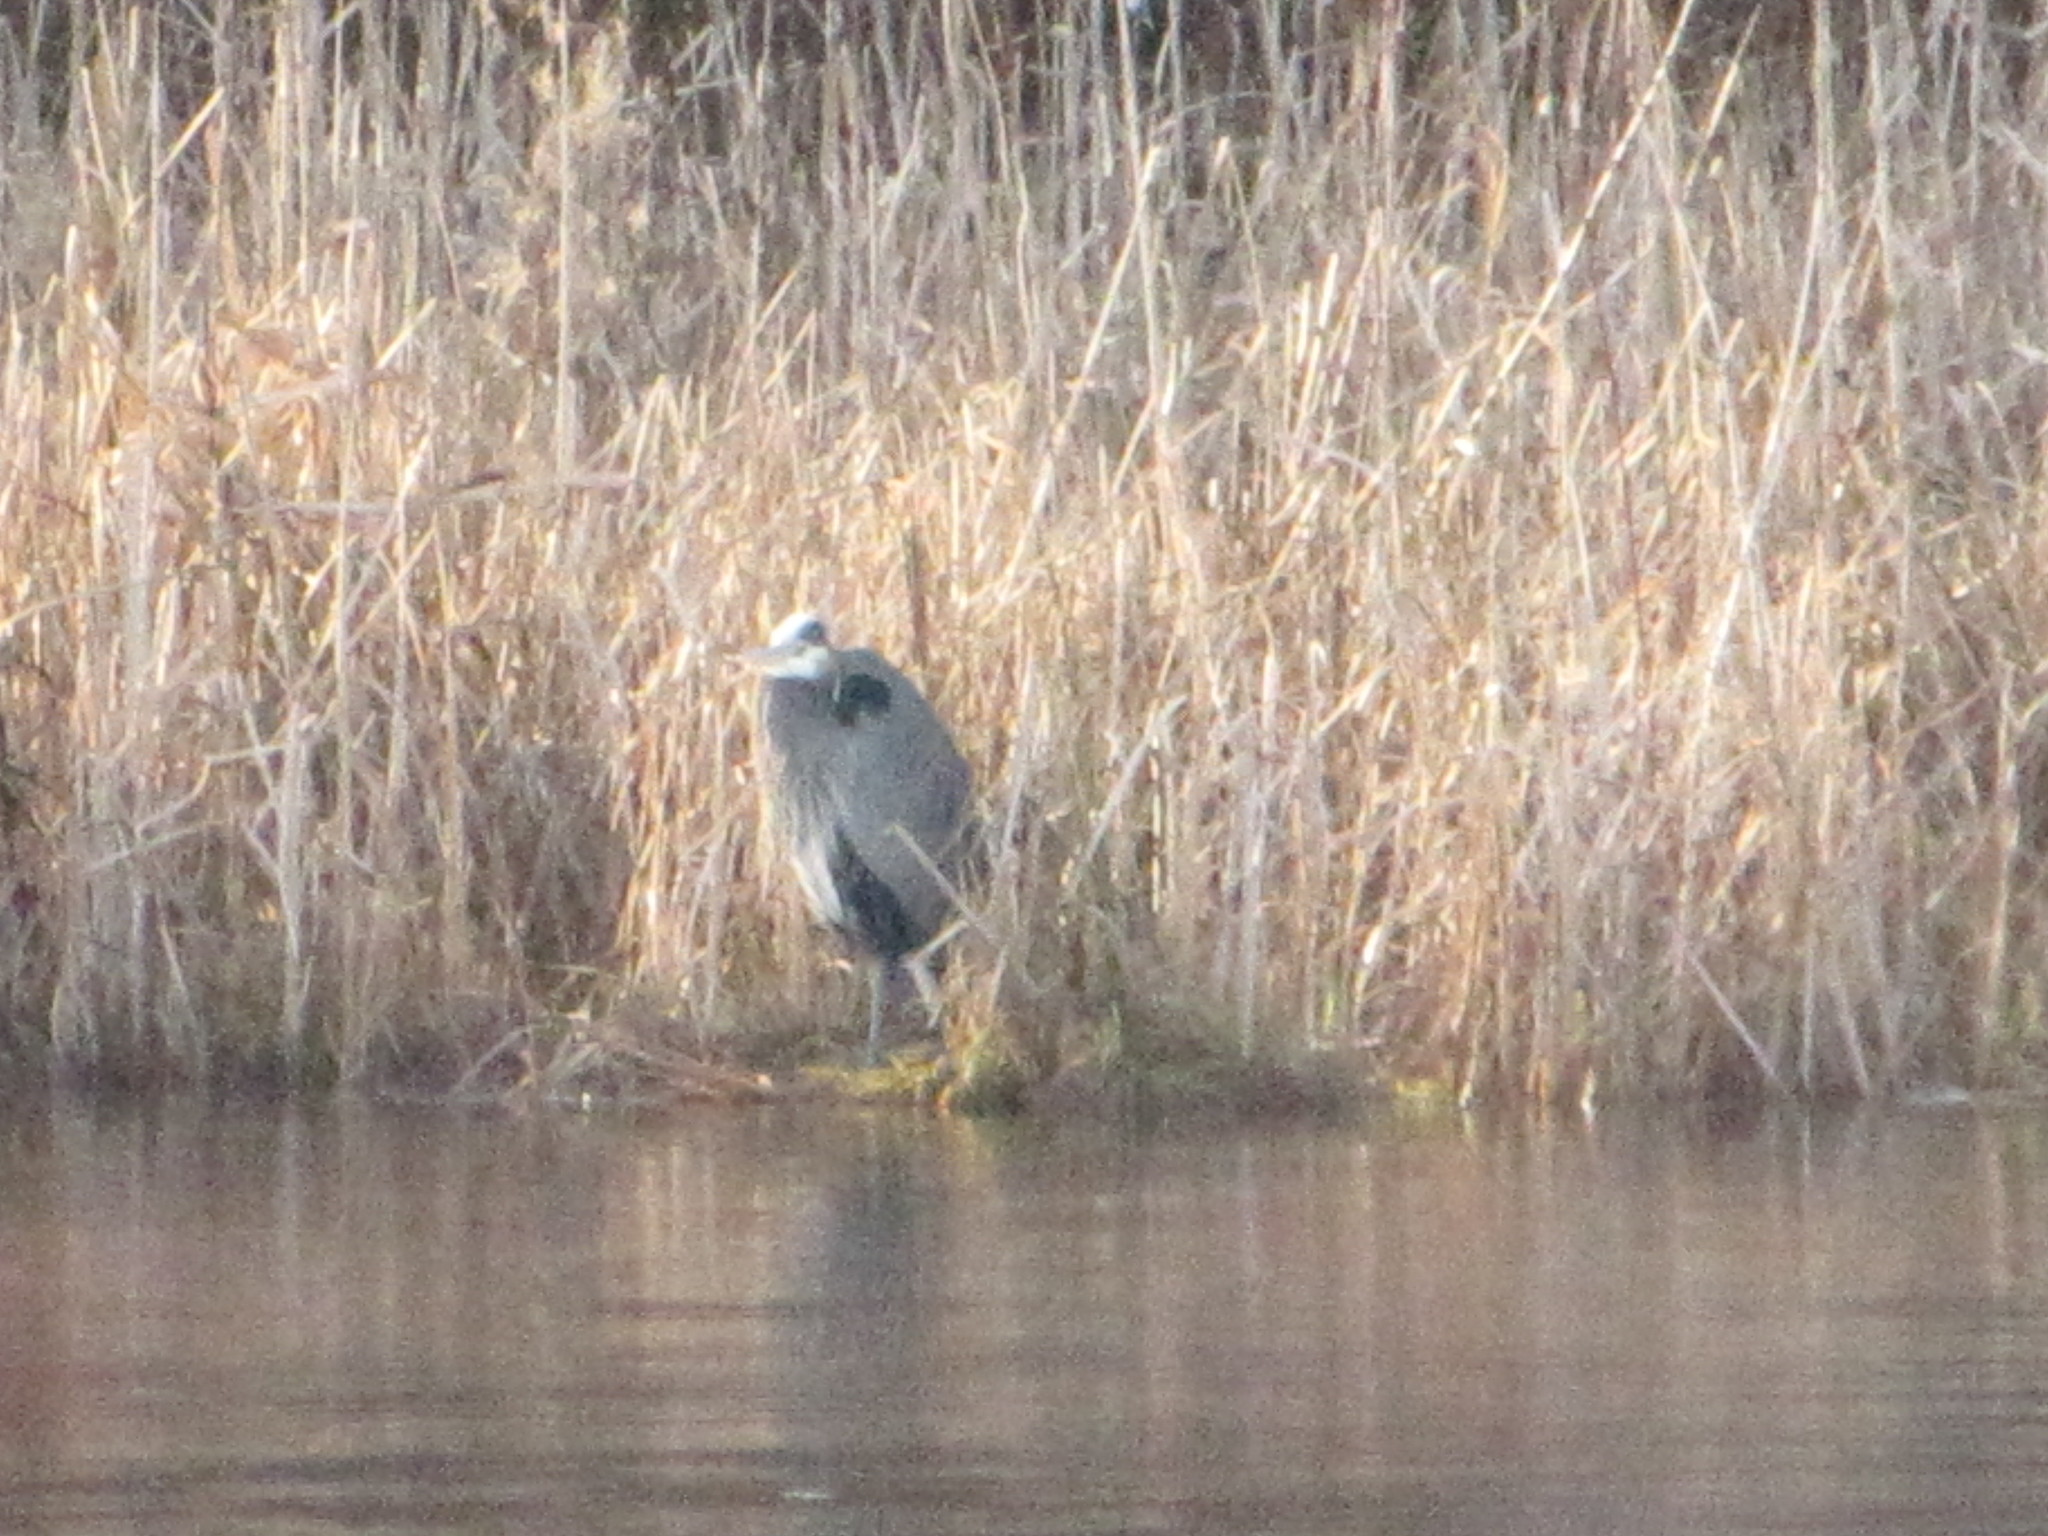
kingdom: Animalia
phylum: Chordata
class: Aves
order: Pelecaniformes
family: Ardeidae
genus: Ardea
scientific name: Ardea herodias
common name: Great blue heron
